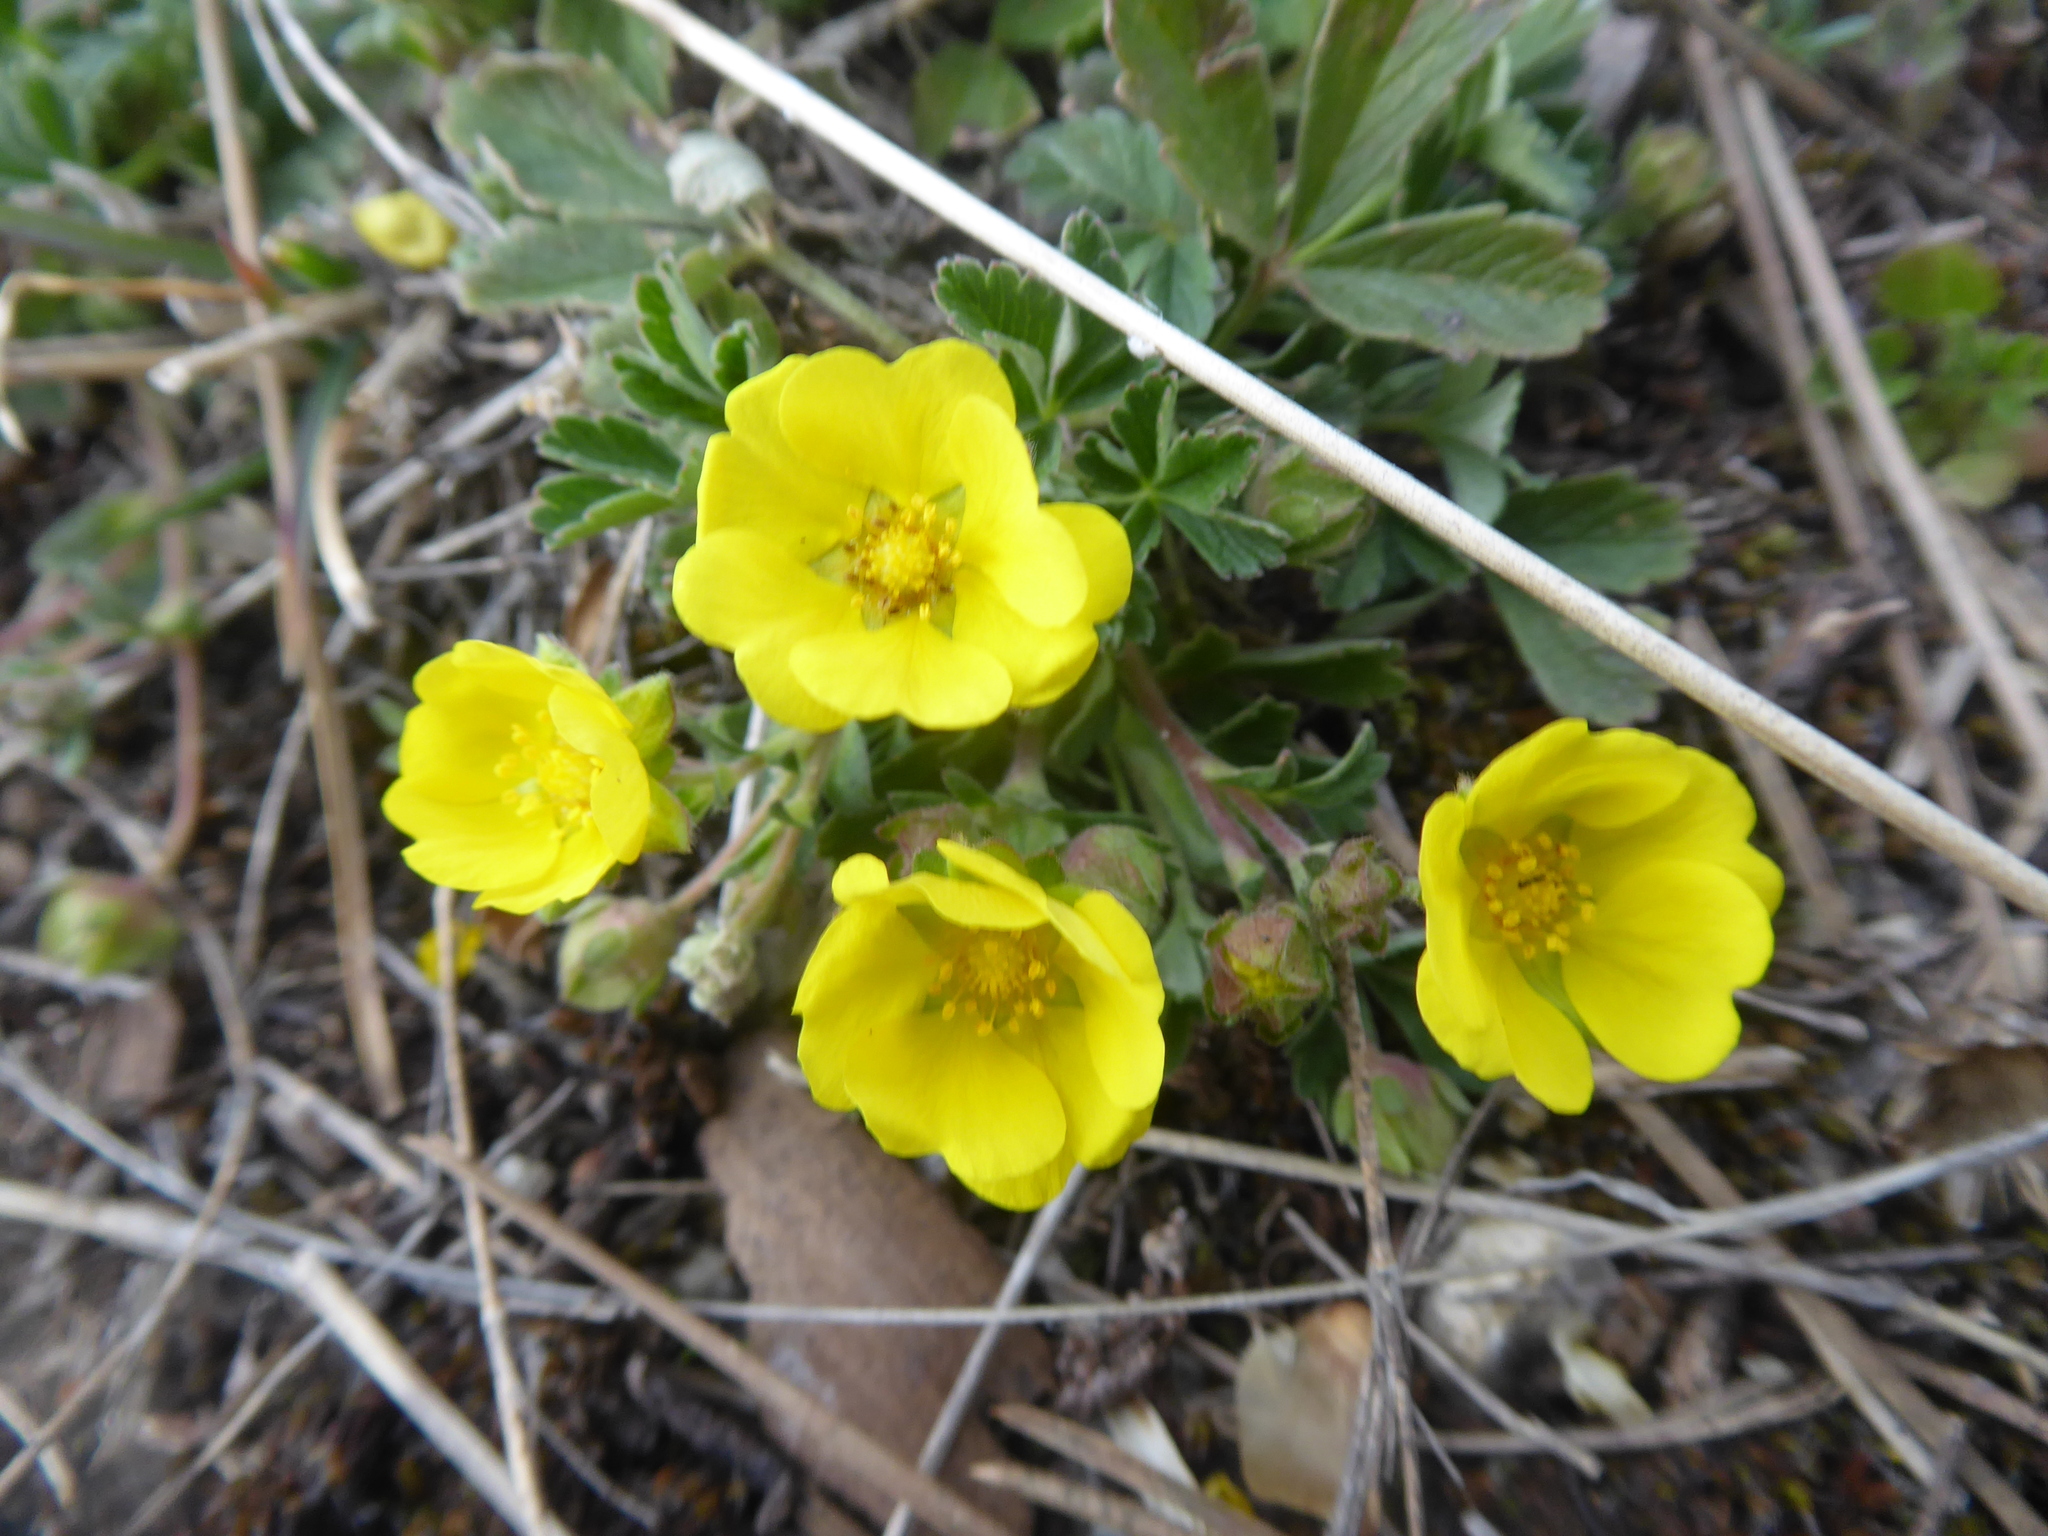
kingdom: Plantae
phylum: Tracheophyta
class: Magnoliopsida
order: Rosales
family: Rosaceae
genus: Potentilla
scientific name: Potentilla incana
